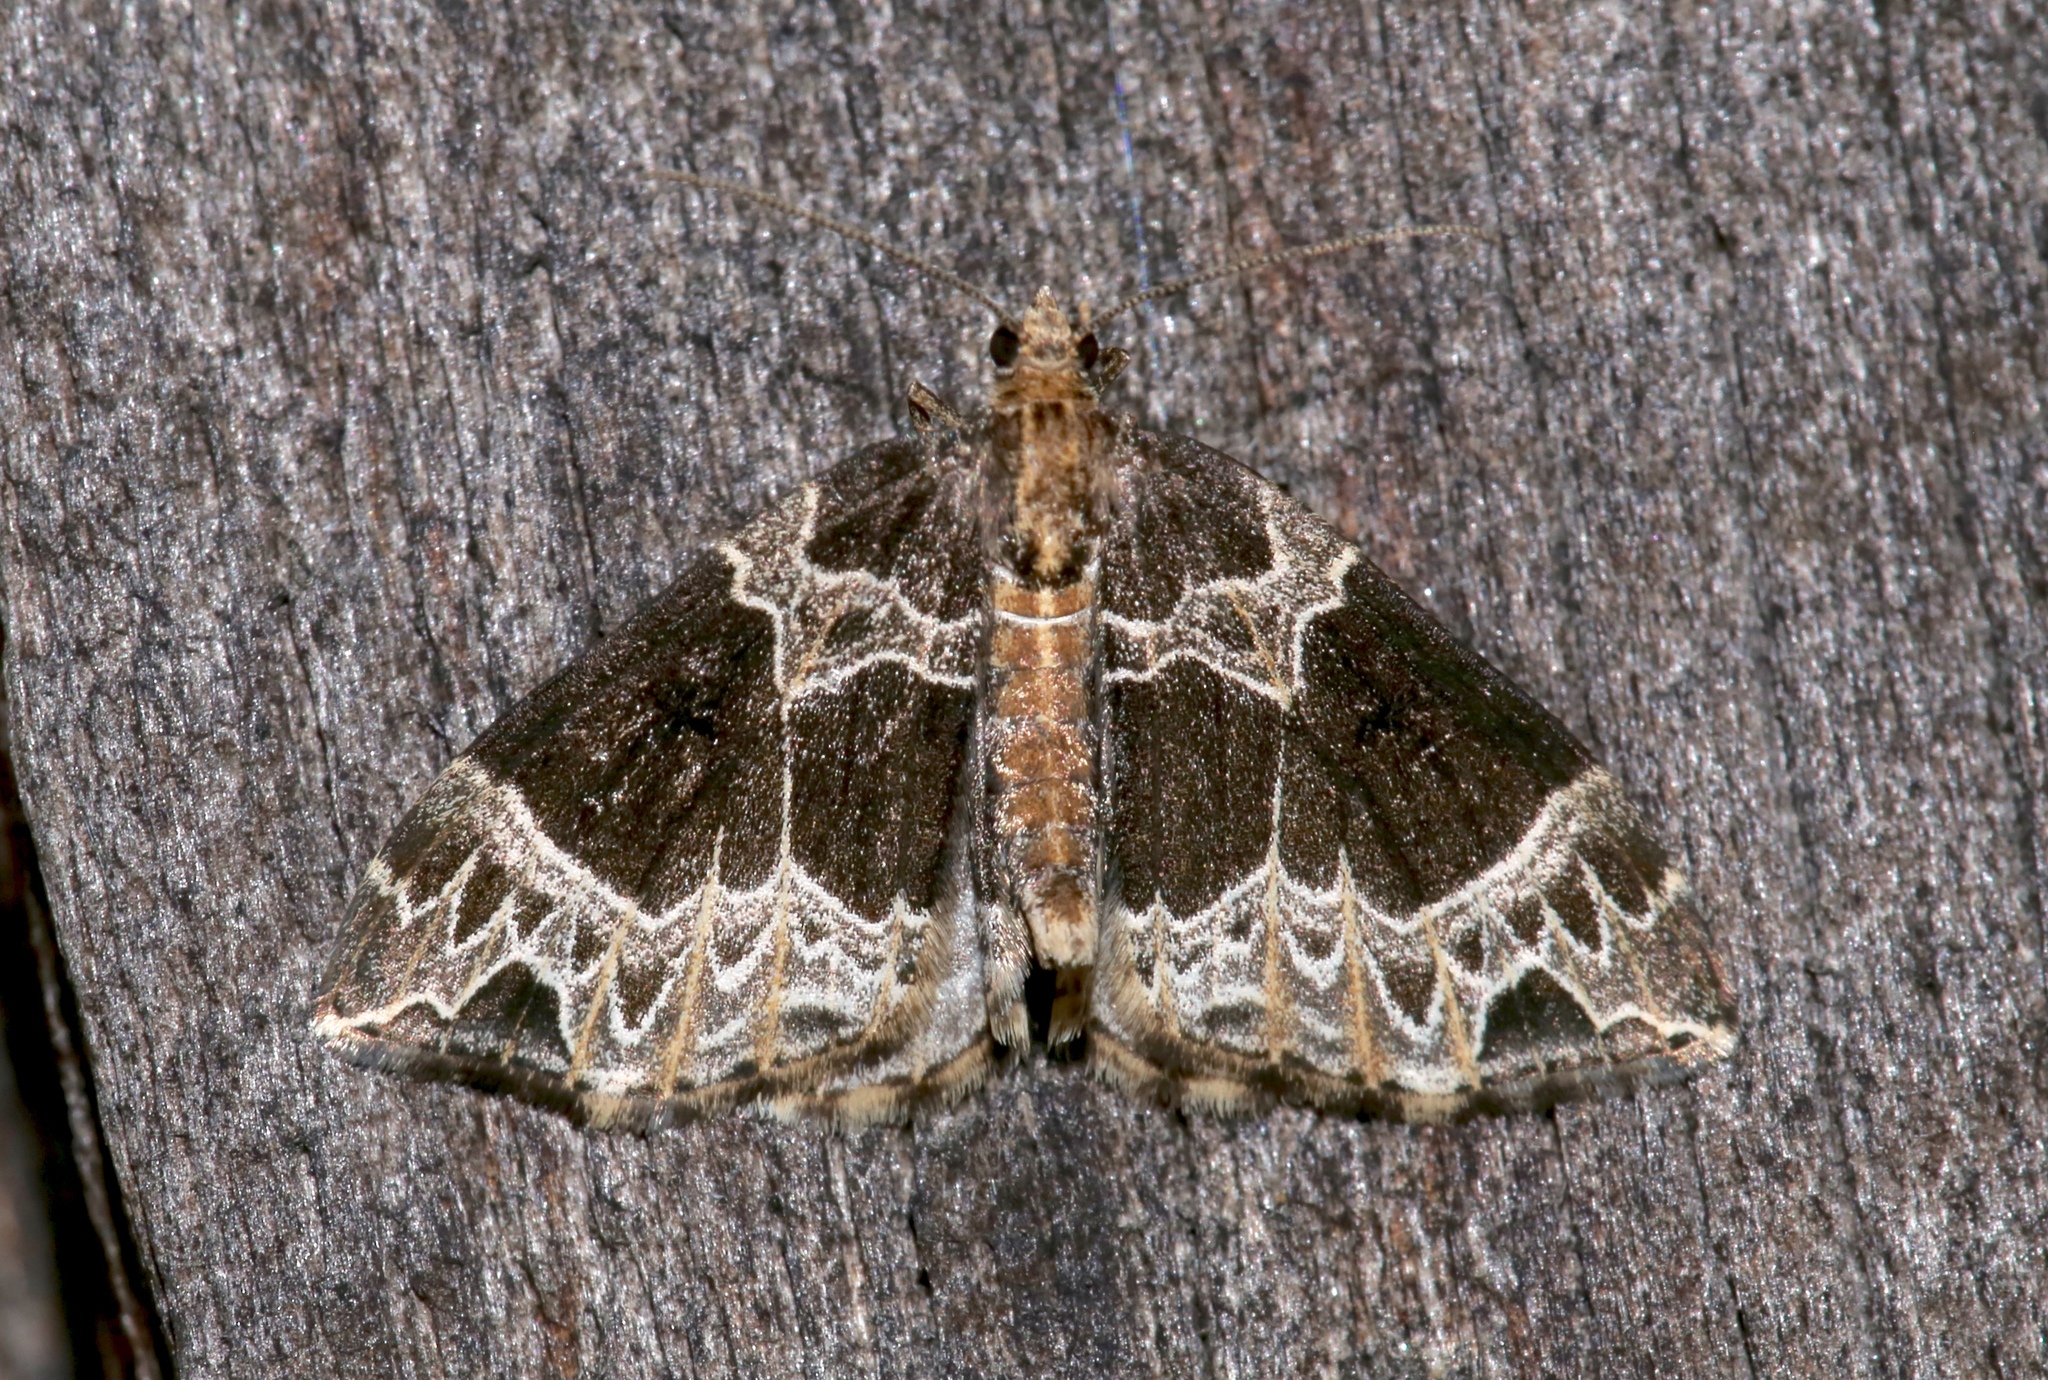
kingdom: Animalia
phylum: Arthropoda
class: Insecta
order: Lepidoptera
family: Geometridae
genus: Ecliptopera
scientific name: Ecliptopera silaceata
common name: Small phoenix
